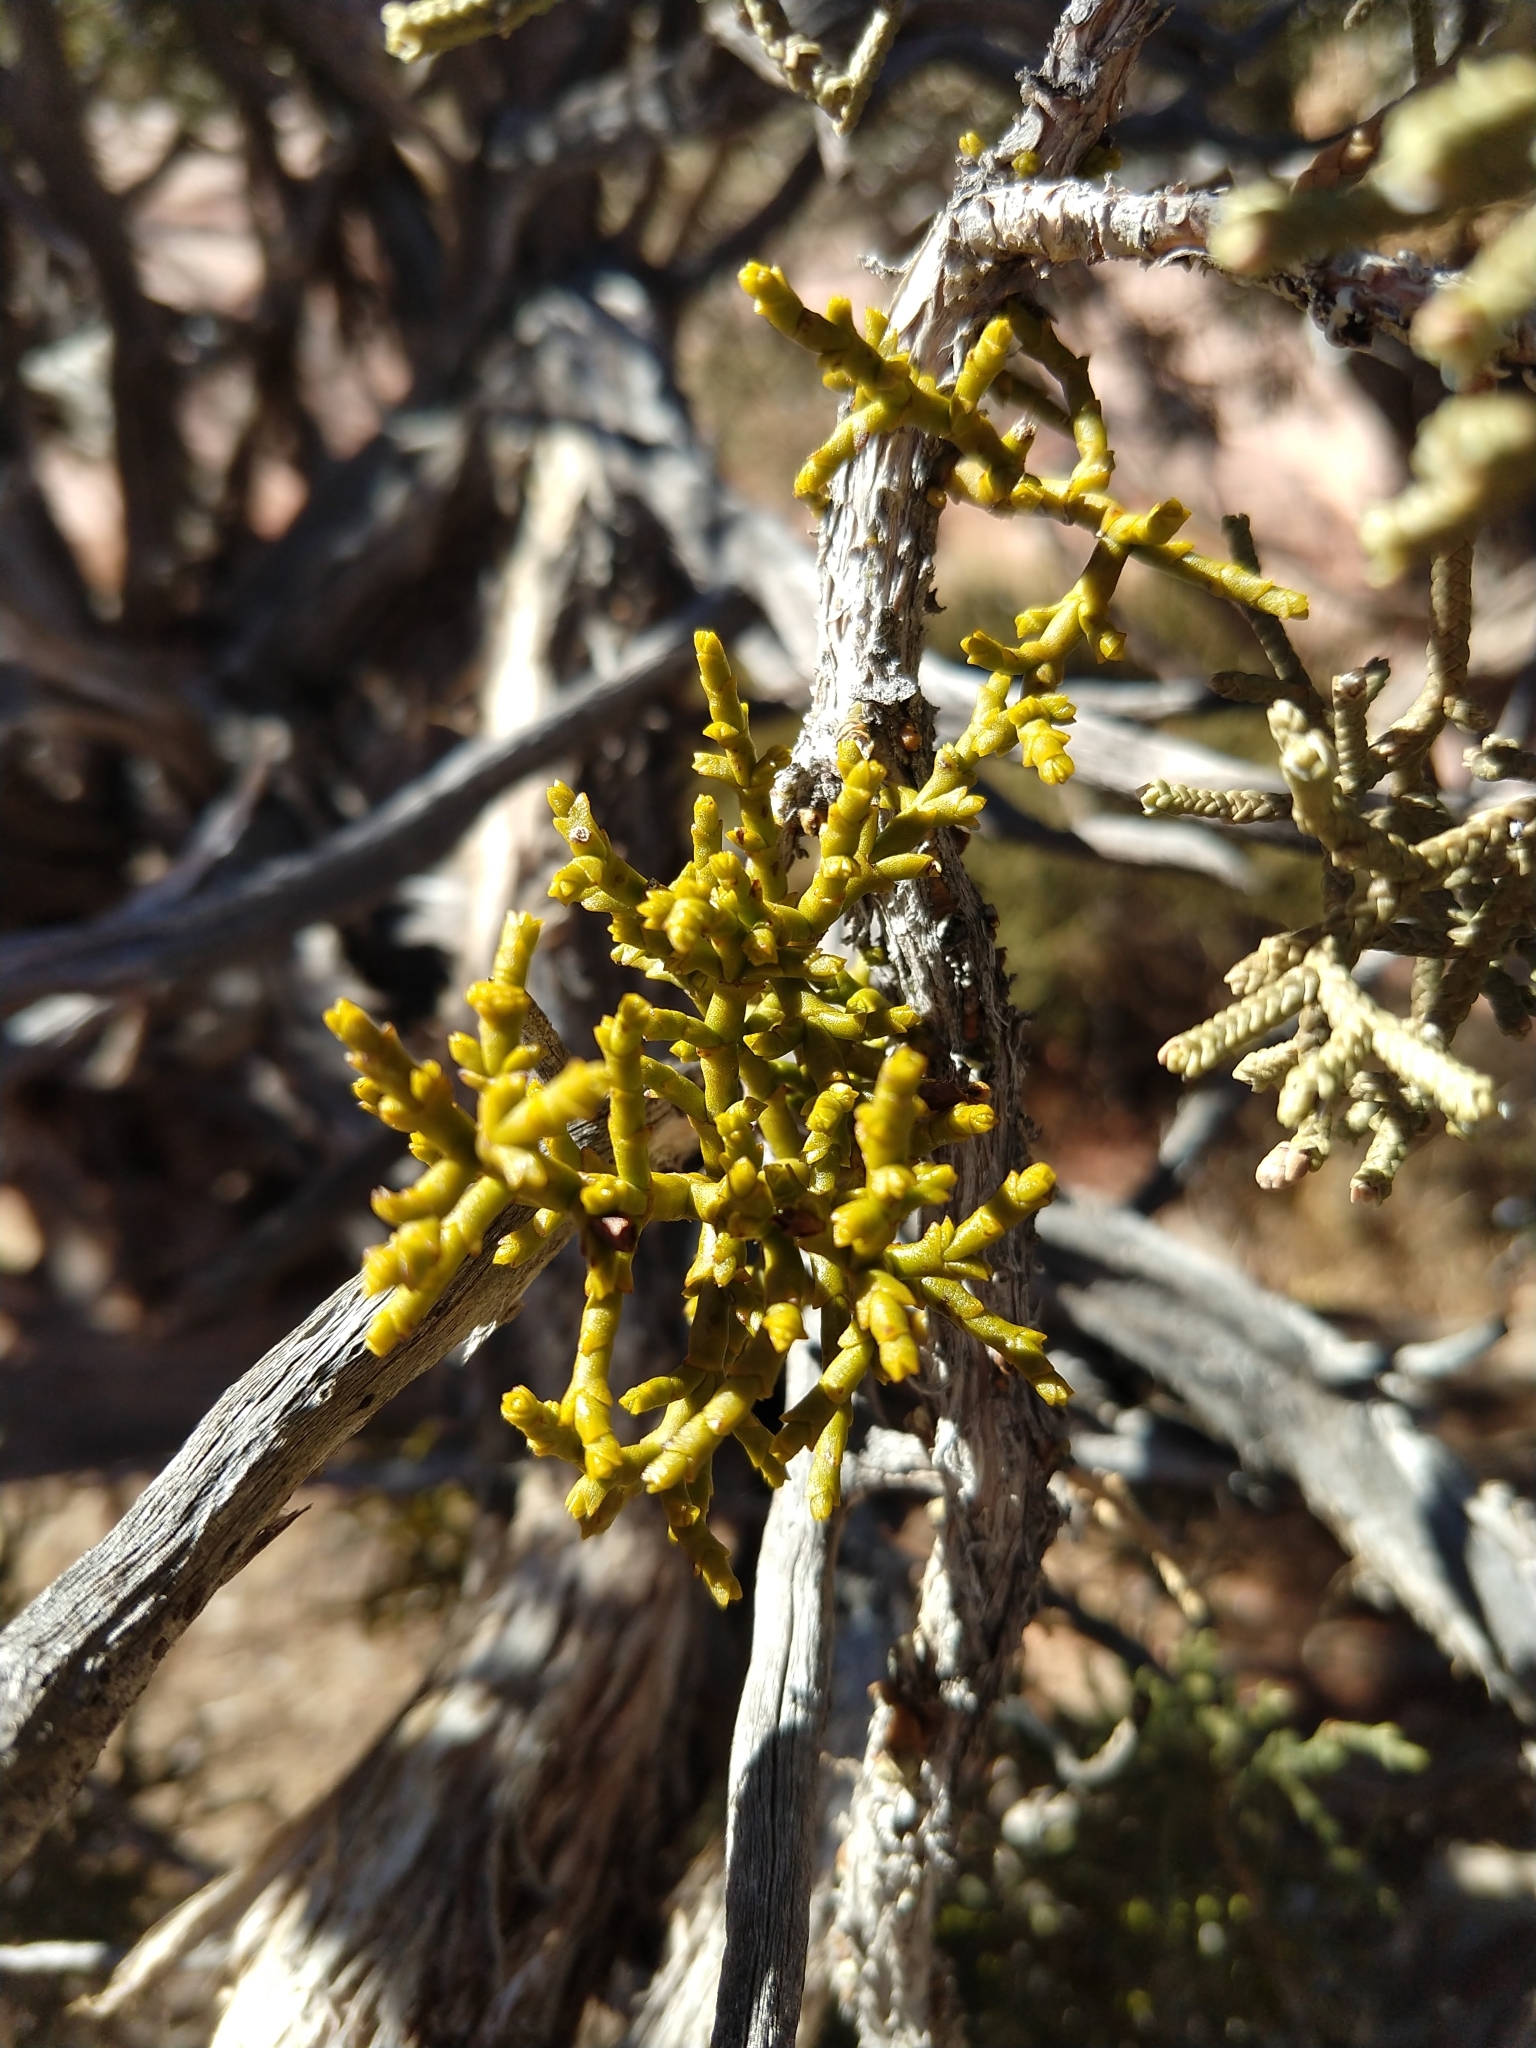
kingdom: Plantae
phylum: Tracheophyta
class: Magnoliopsida
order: Santalales
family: Viscaceae
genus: Phoradendron
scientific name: Phoradendron juniperinum
